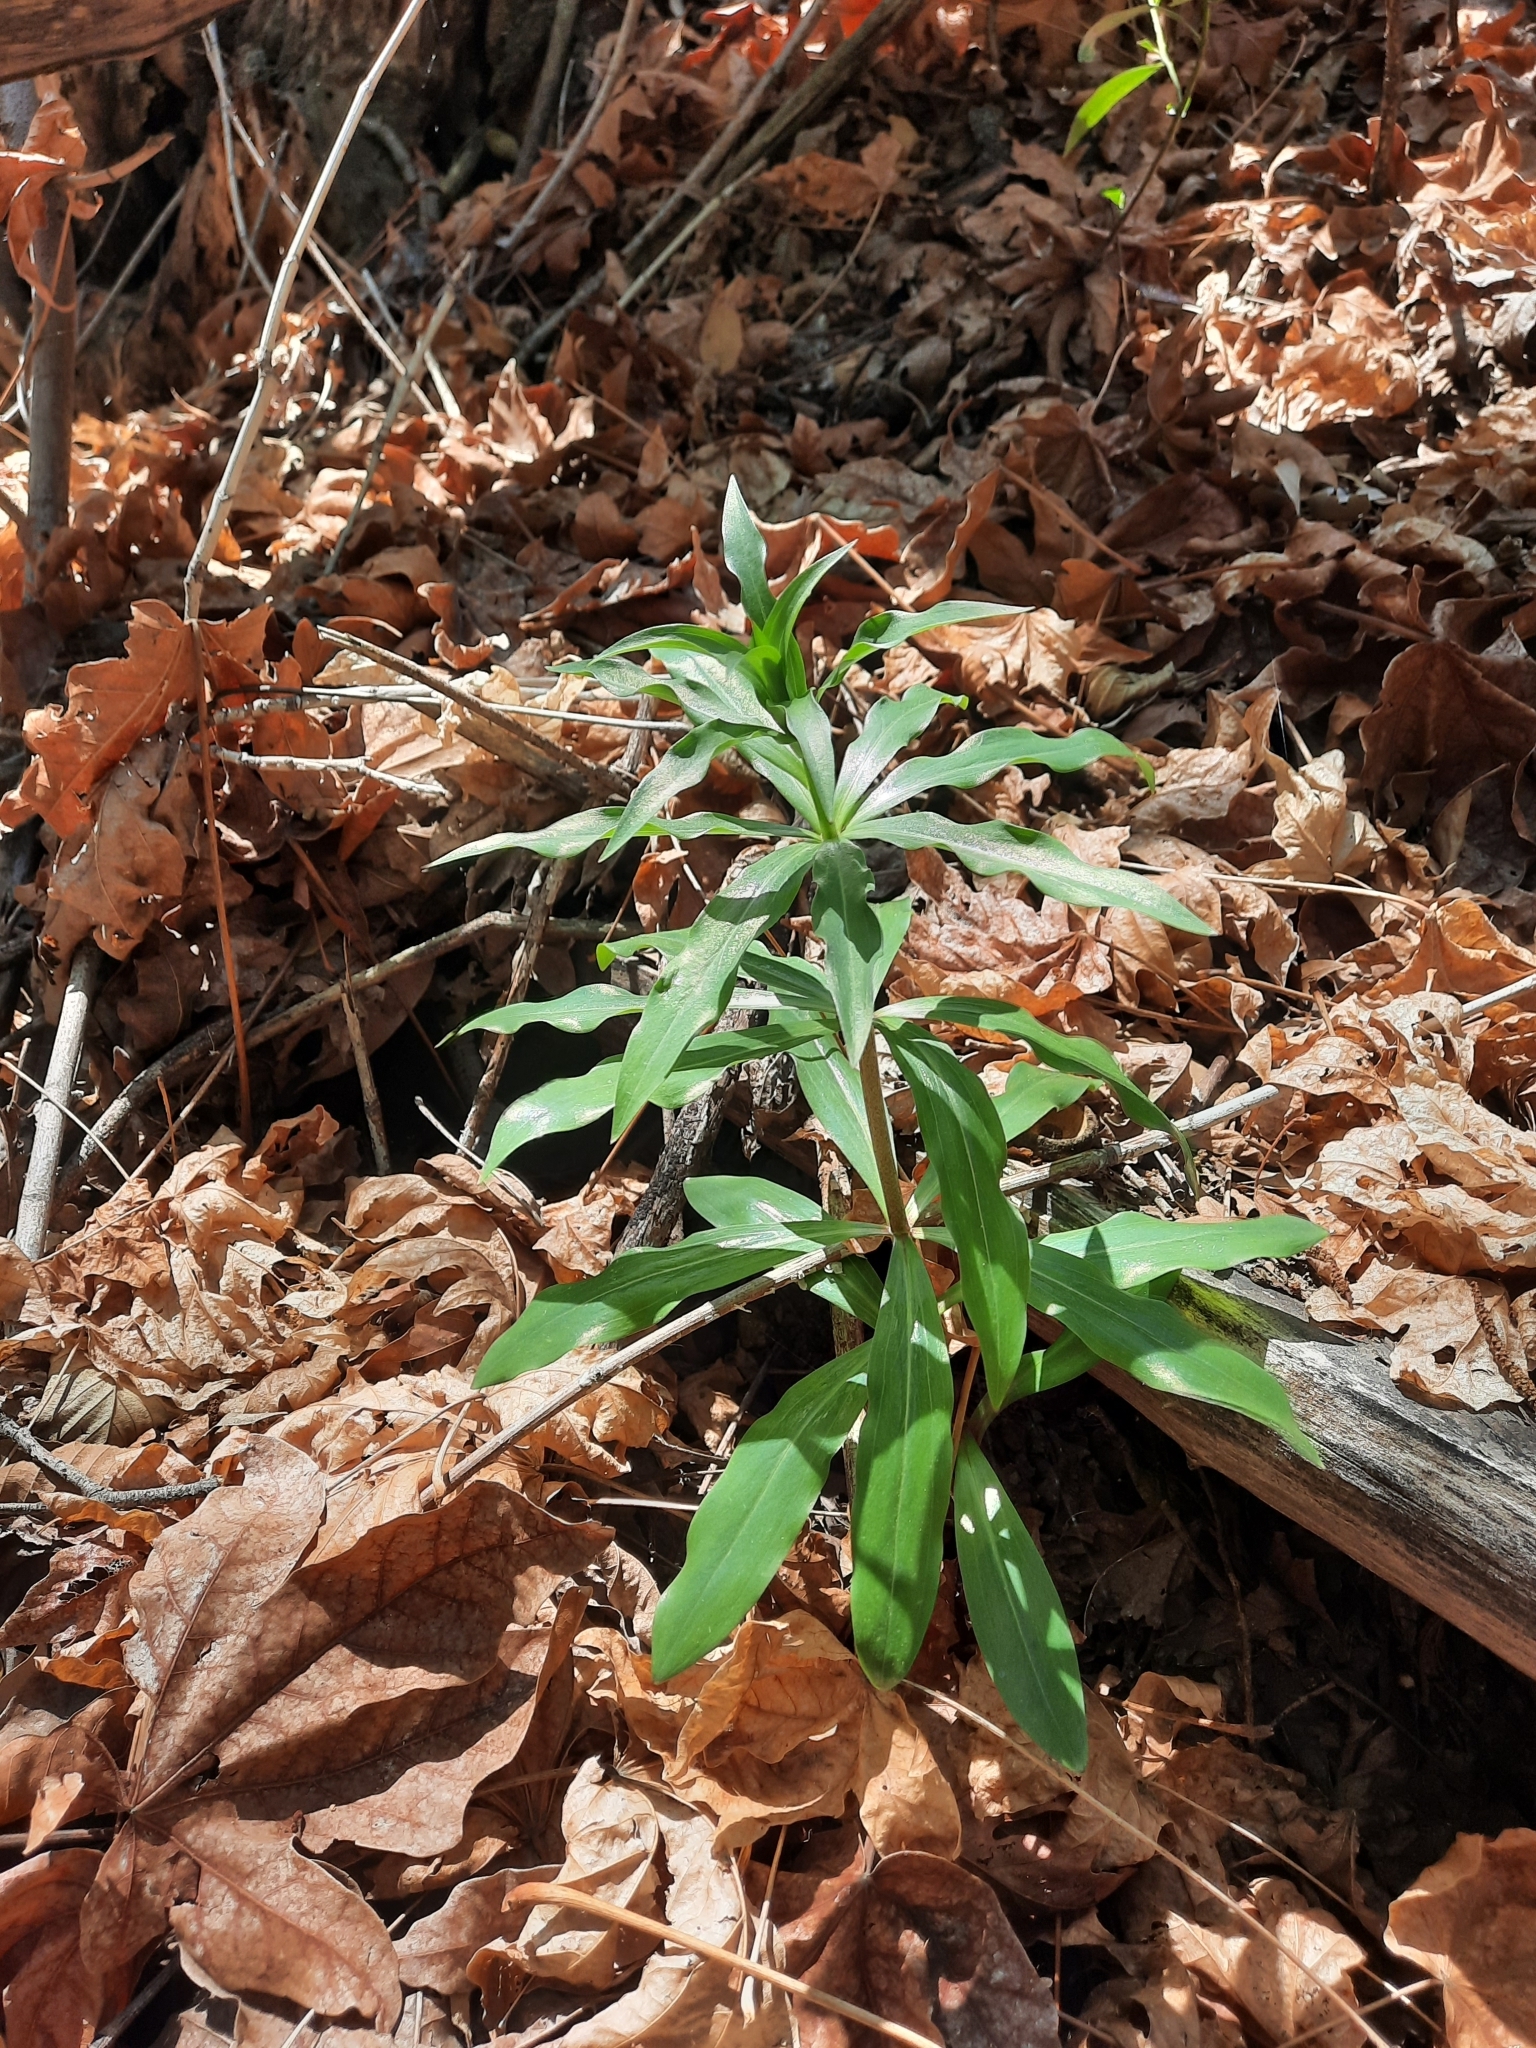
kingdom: Plantae
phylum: Tracheophyta
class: Liliopsida
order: Liliales
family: Liliaceae
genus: Lilium
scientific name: Lilium humboldtii
